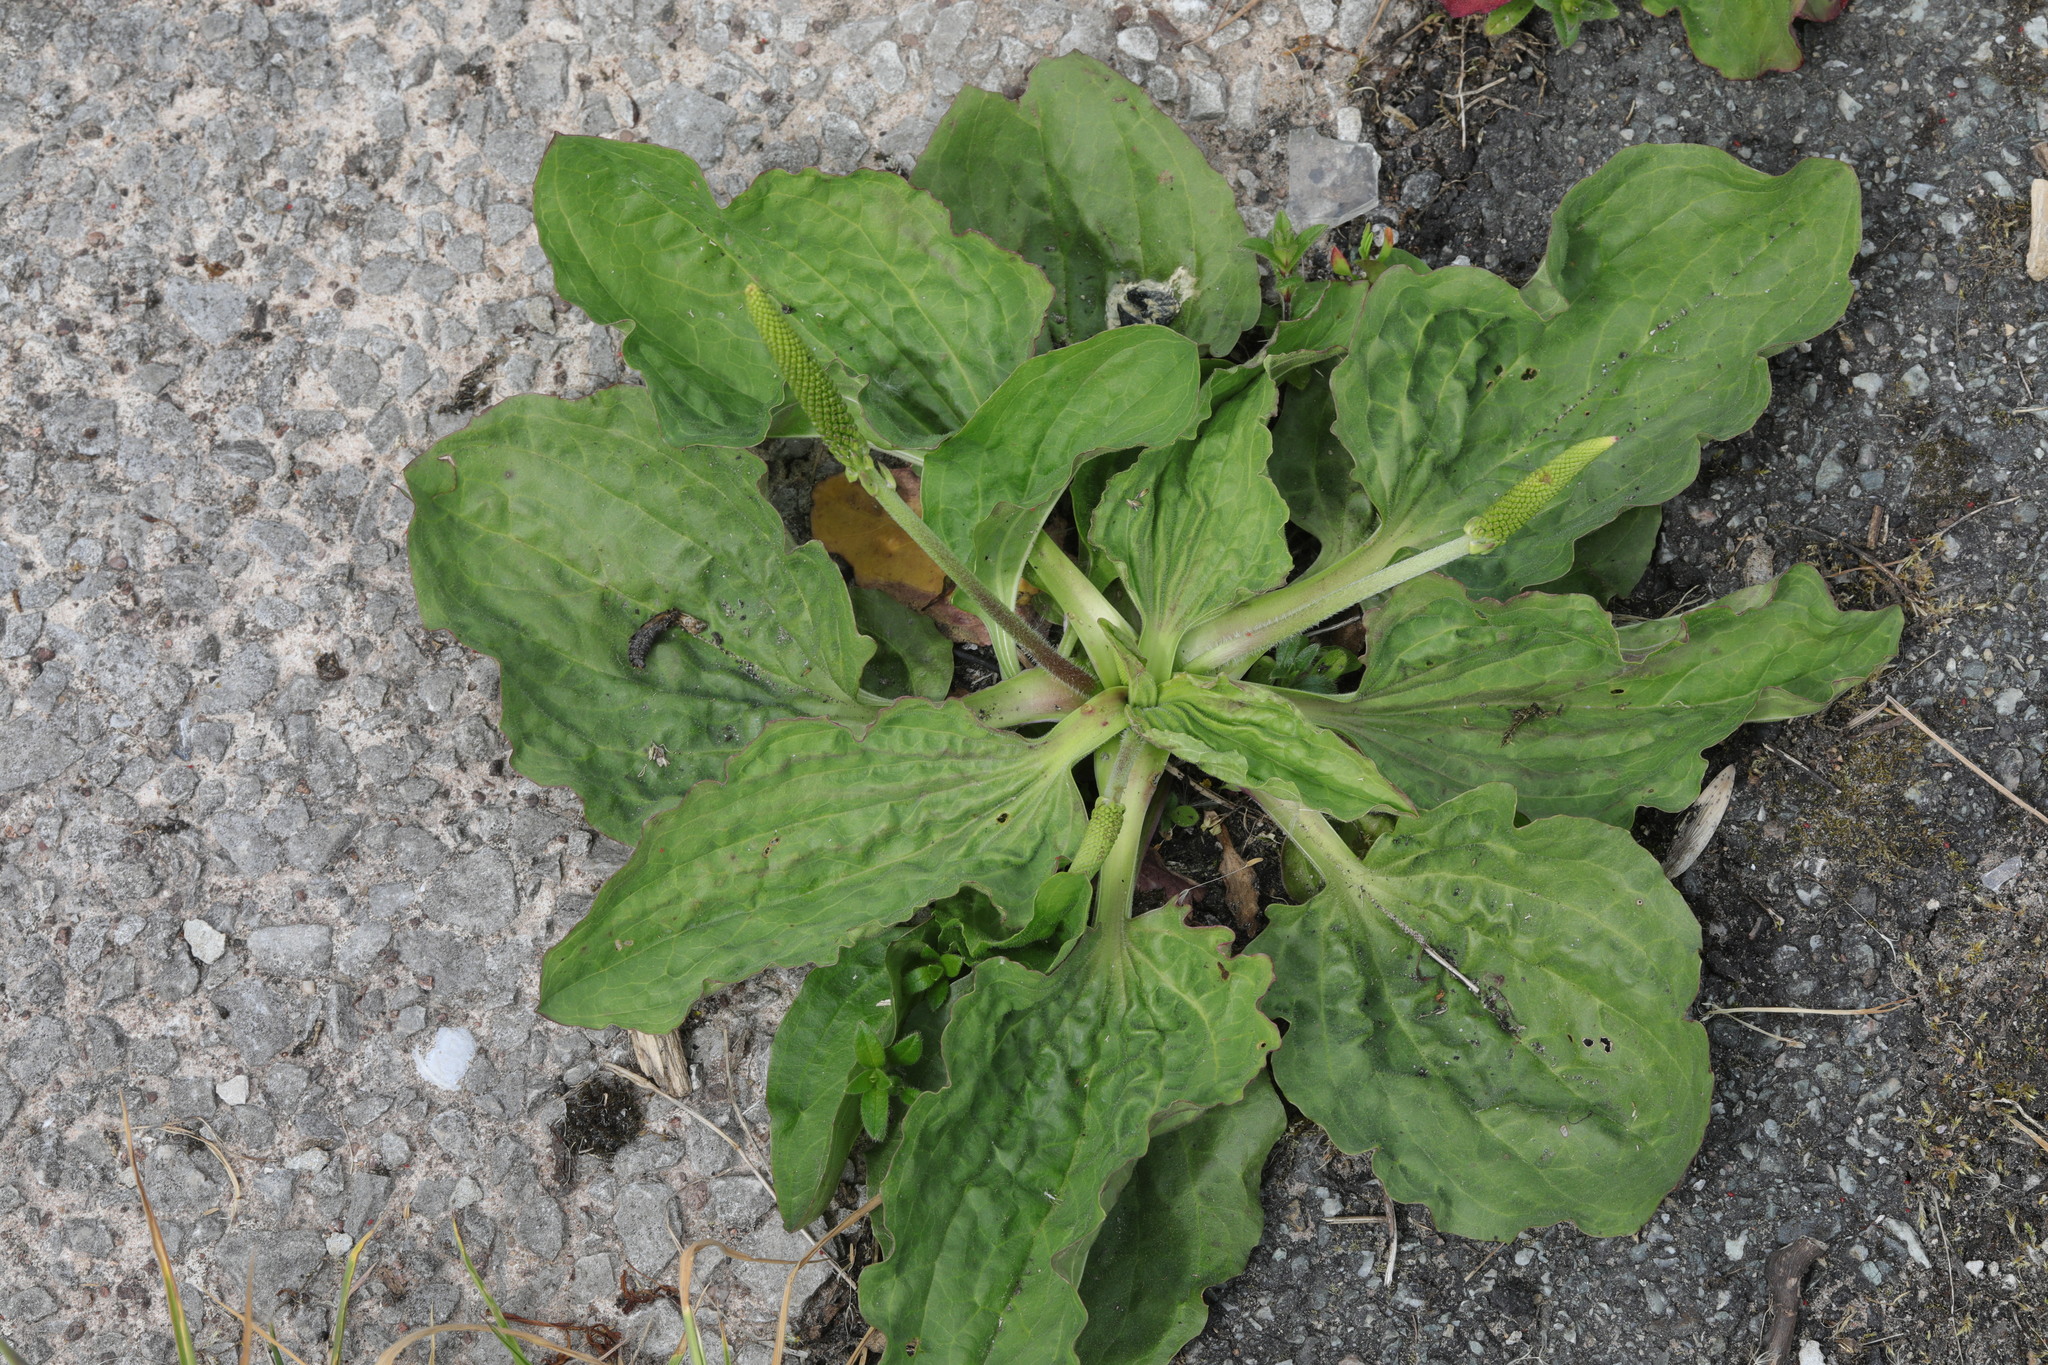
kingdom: Plantae
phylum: Tracheophyta
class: Magnoliopsida
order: Lamiales
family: Plantaginaceae
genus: Plantago
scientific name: Plantago major
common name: Common plantain
